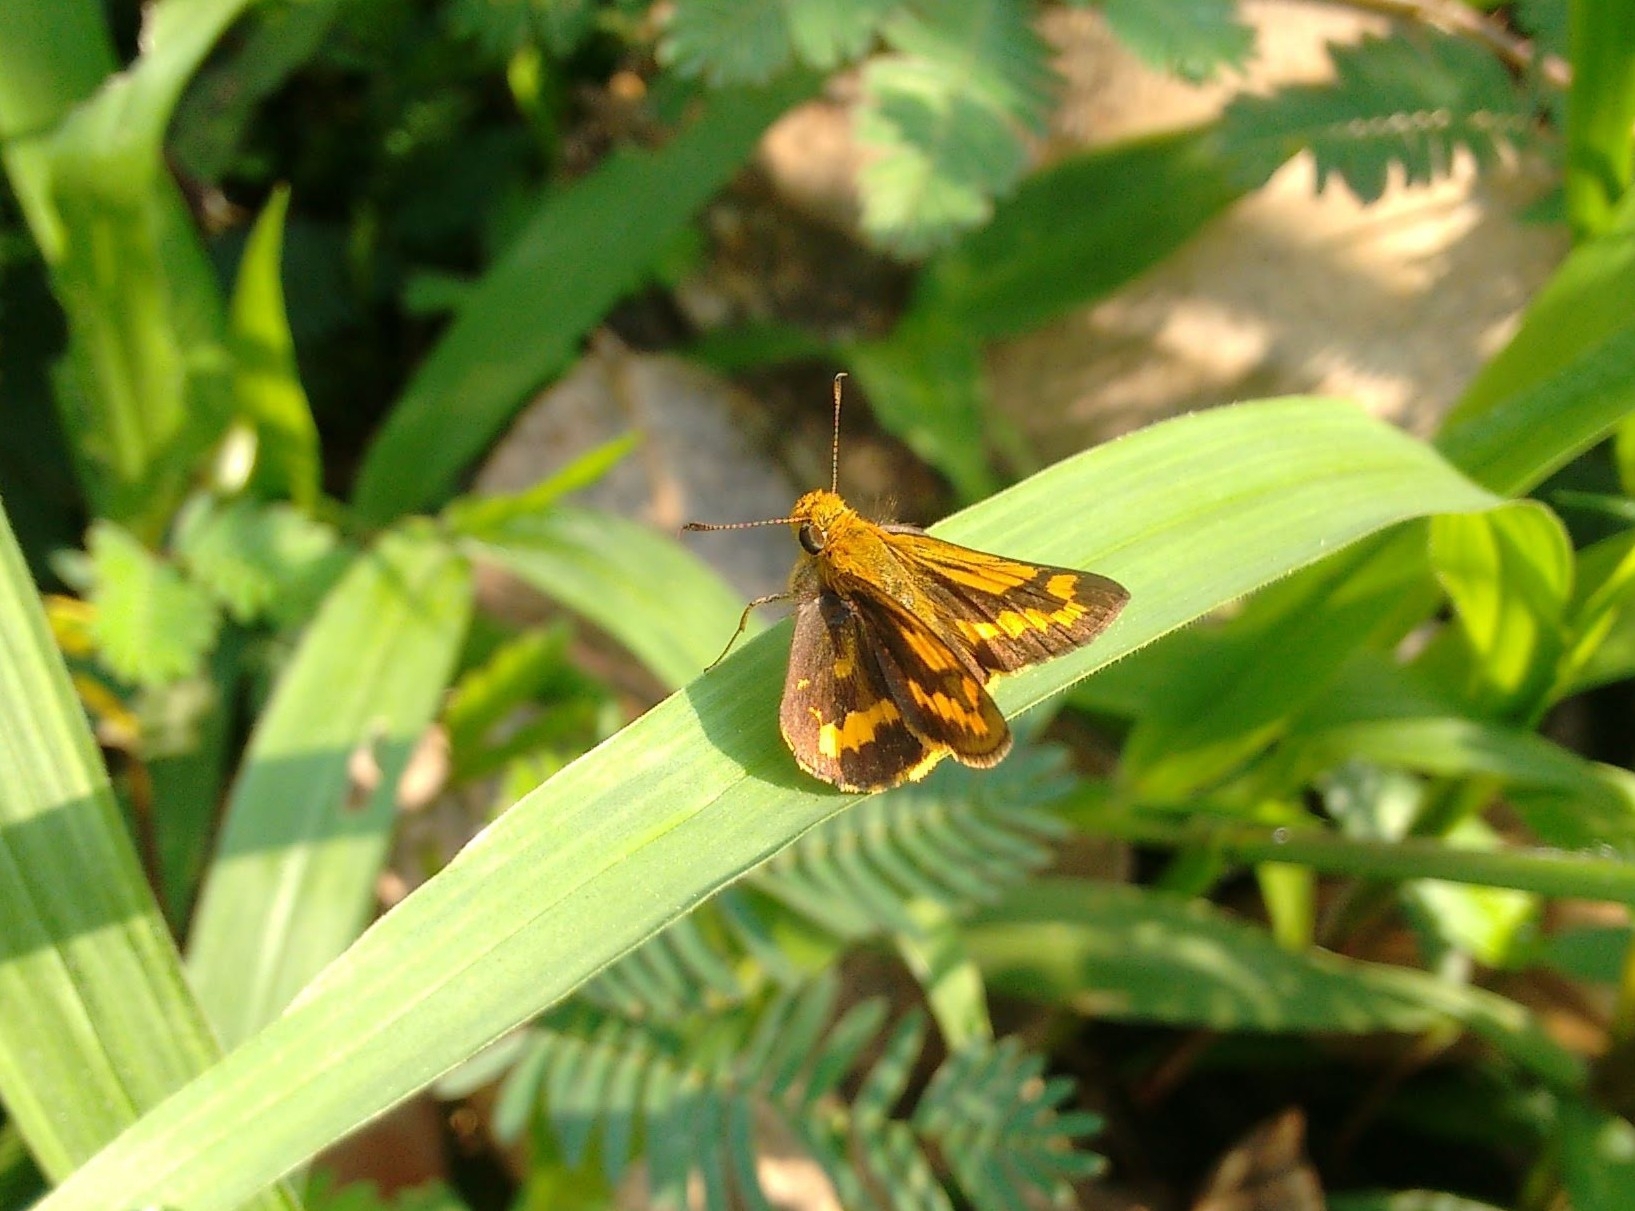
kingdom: Animalia
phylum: Arthropoda
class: Insecta
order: Lepidoptera
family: Hesperiidae
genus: Potanthus
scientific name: Potanthus pseudomaesa
